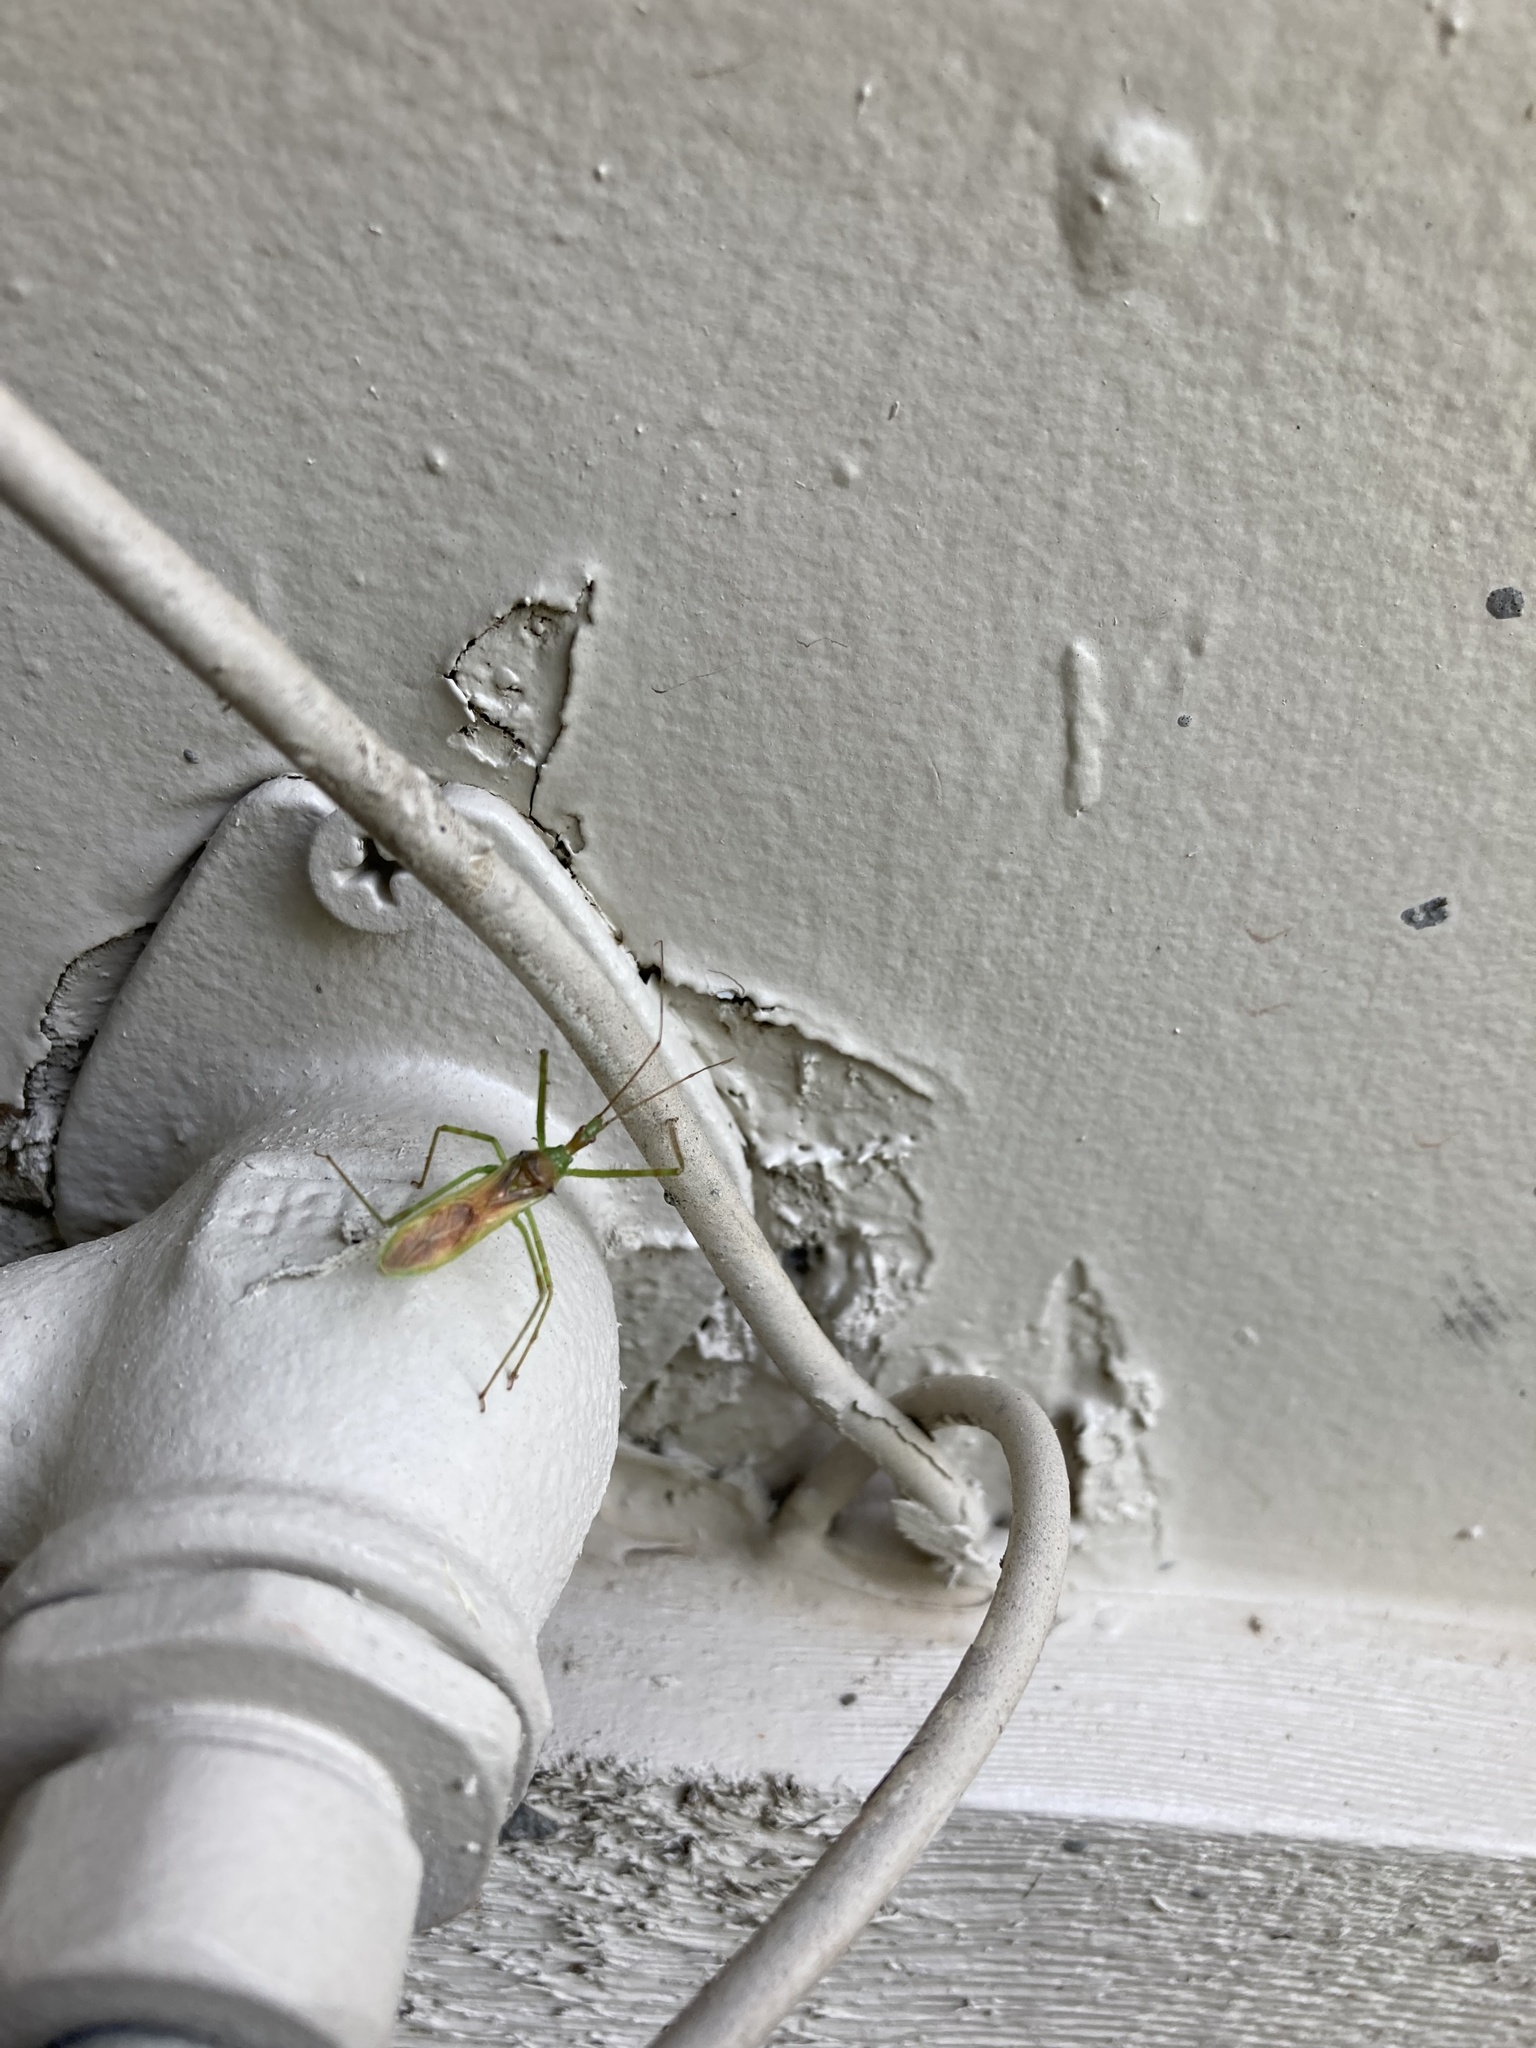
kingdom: Animalia
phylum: Arthropoda
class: Insecta
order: Hemiptera
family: Reduviidae
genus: Zelus
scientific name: Zelus luridus
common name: Pale green assassin bug
